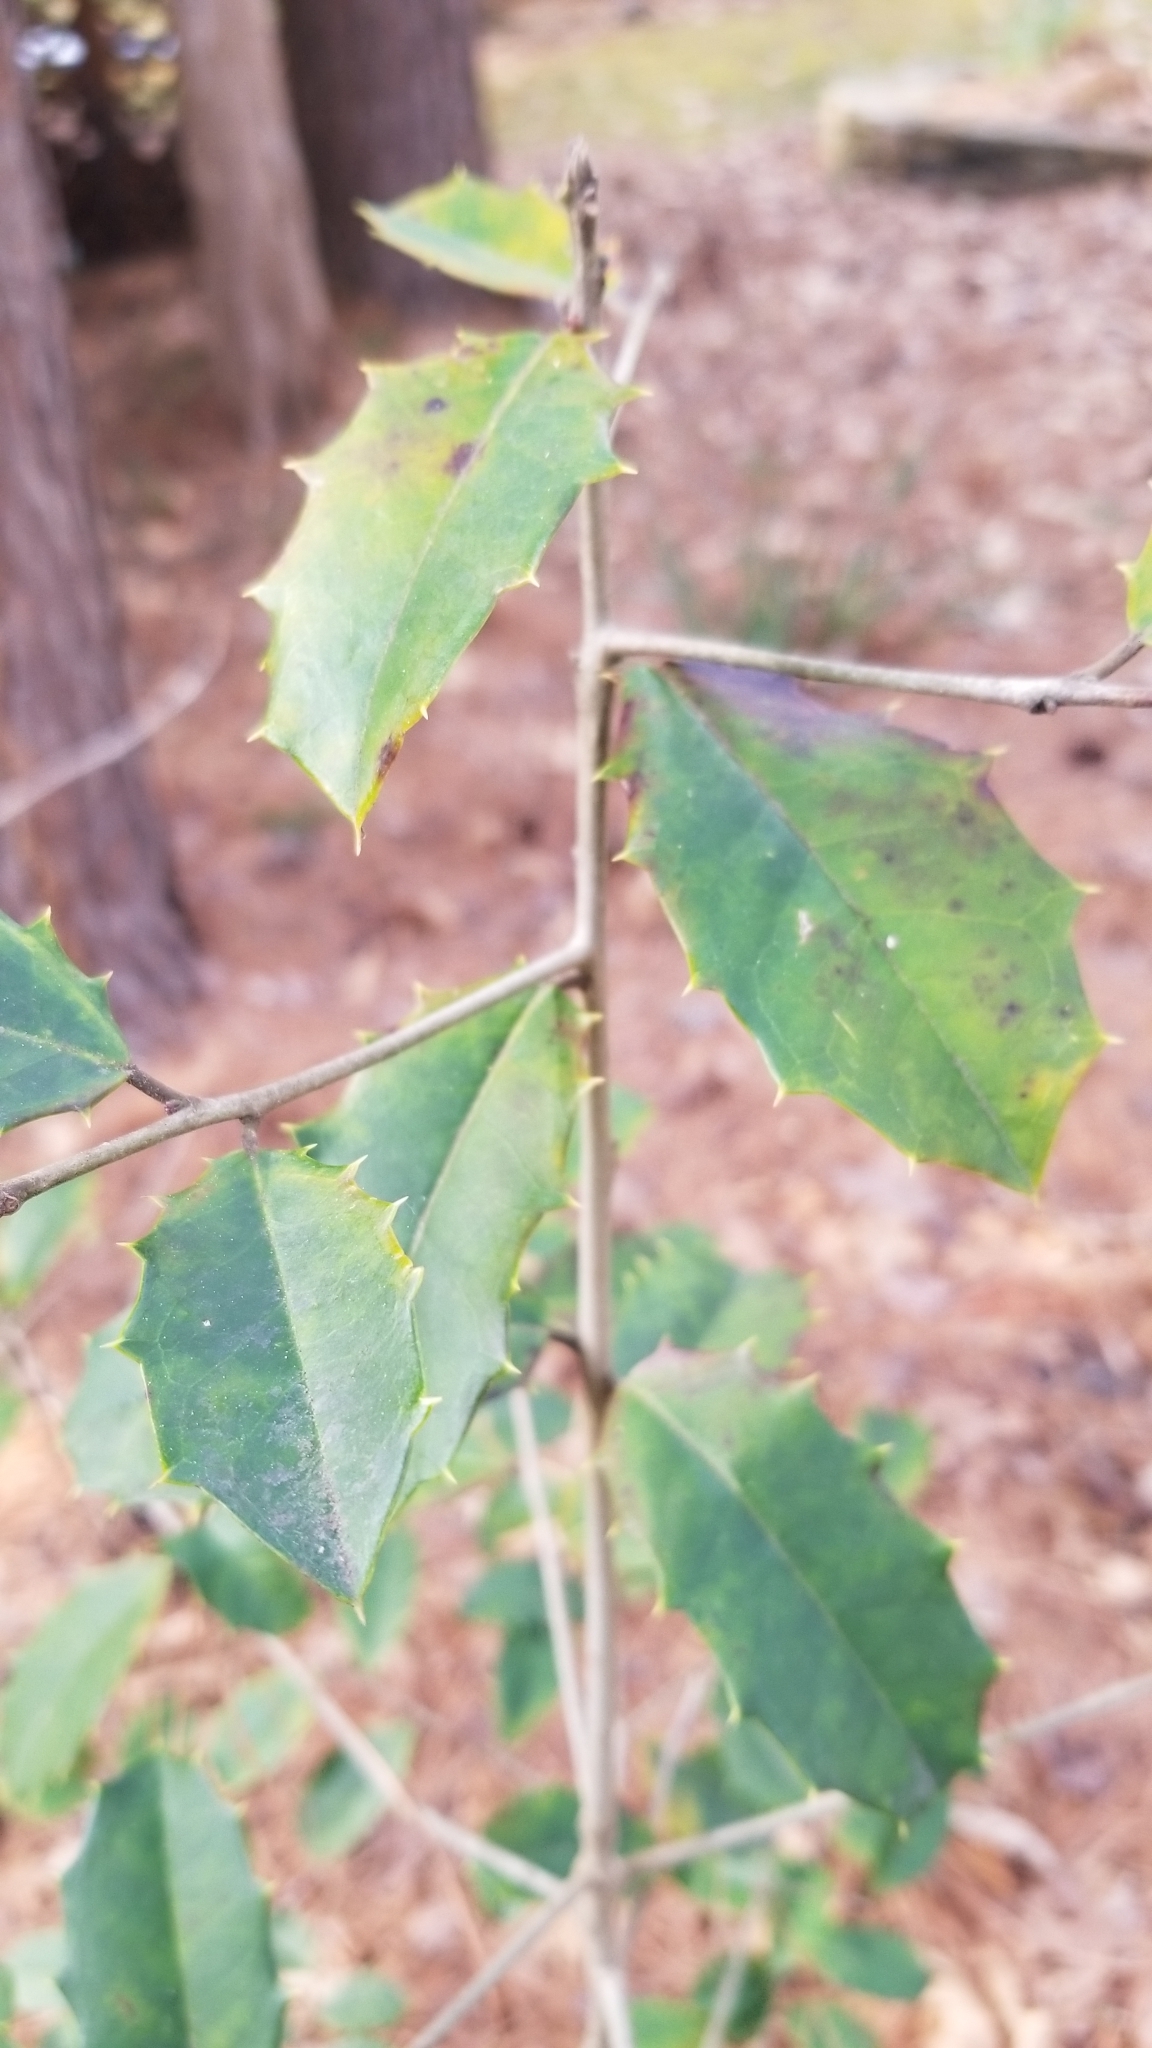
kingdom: Plantae
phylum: Tracheophyta
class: Magnoliopsida
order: Aquifoliales
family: Aquifoliaceae
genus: Ilex
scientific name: Ilex opaca
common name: American holly
